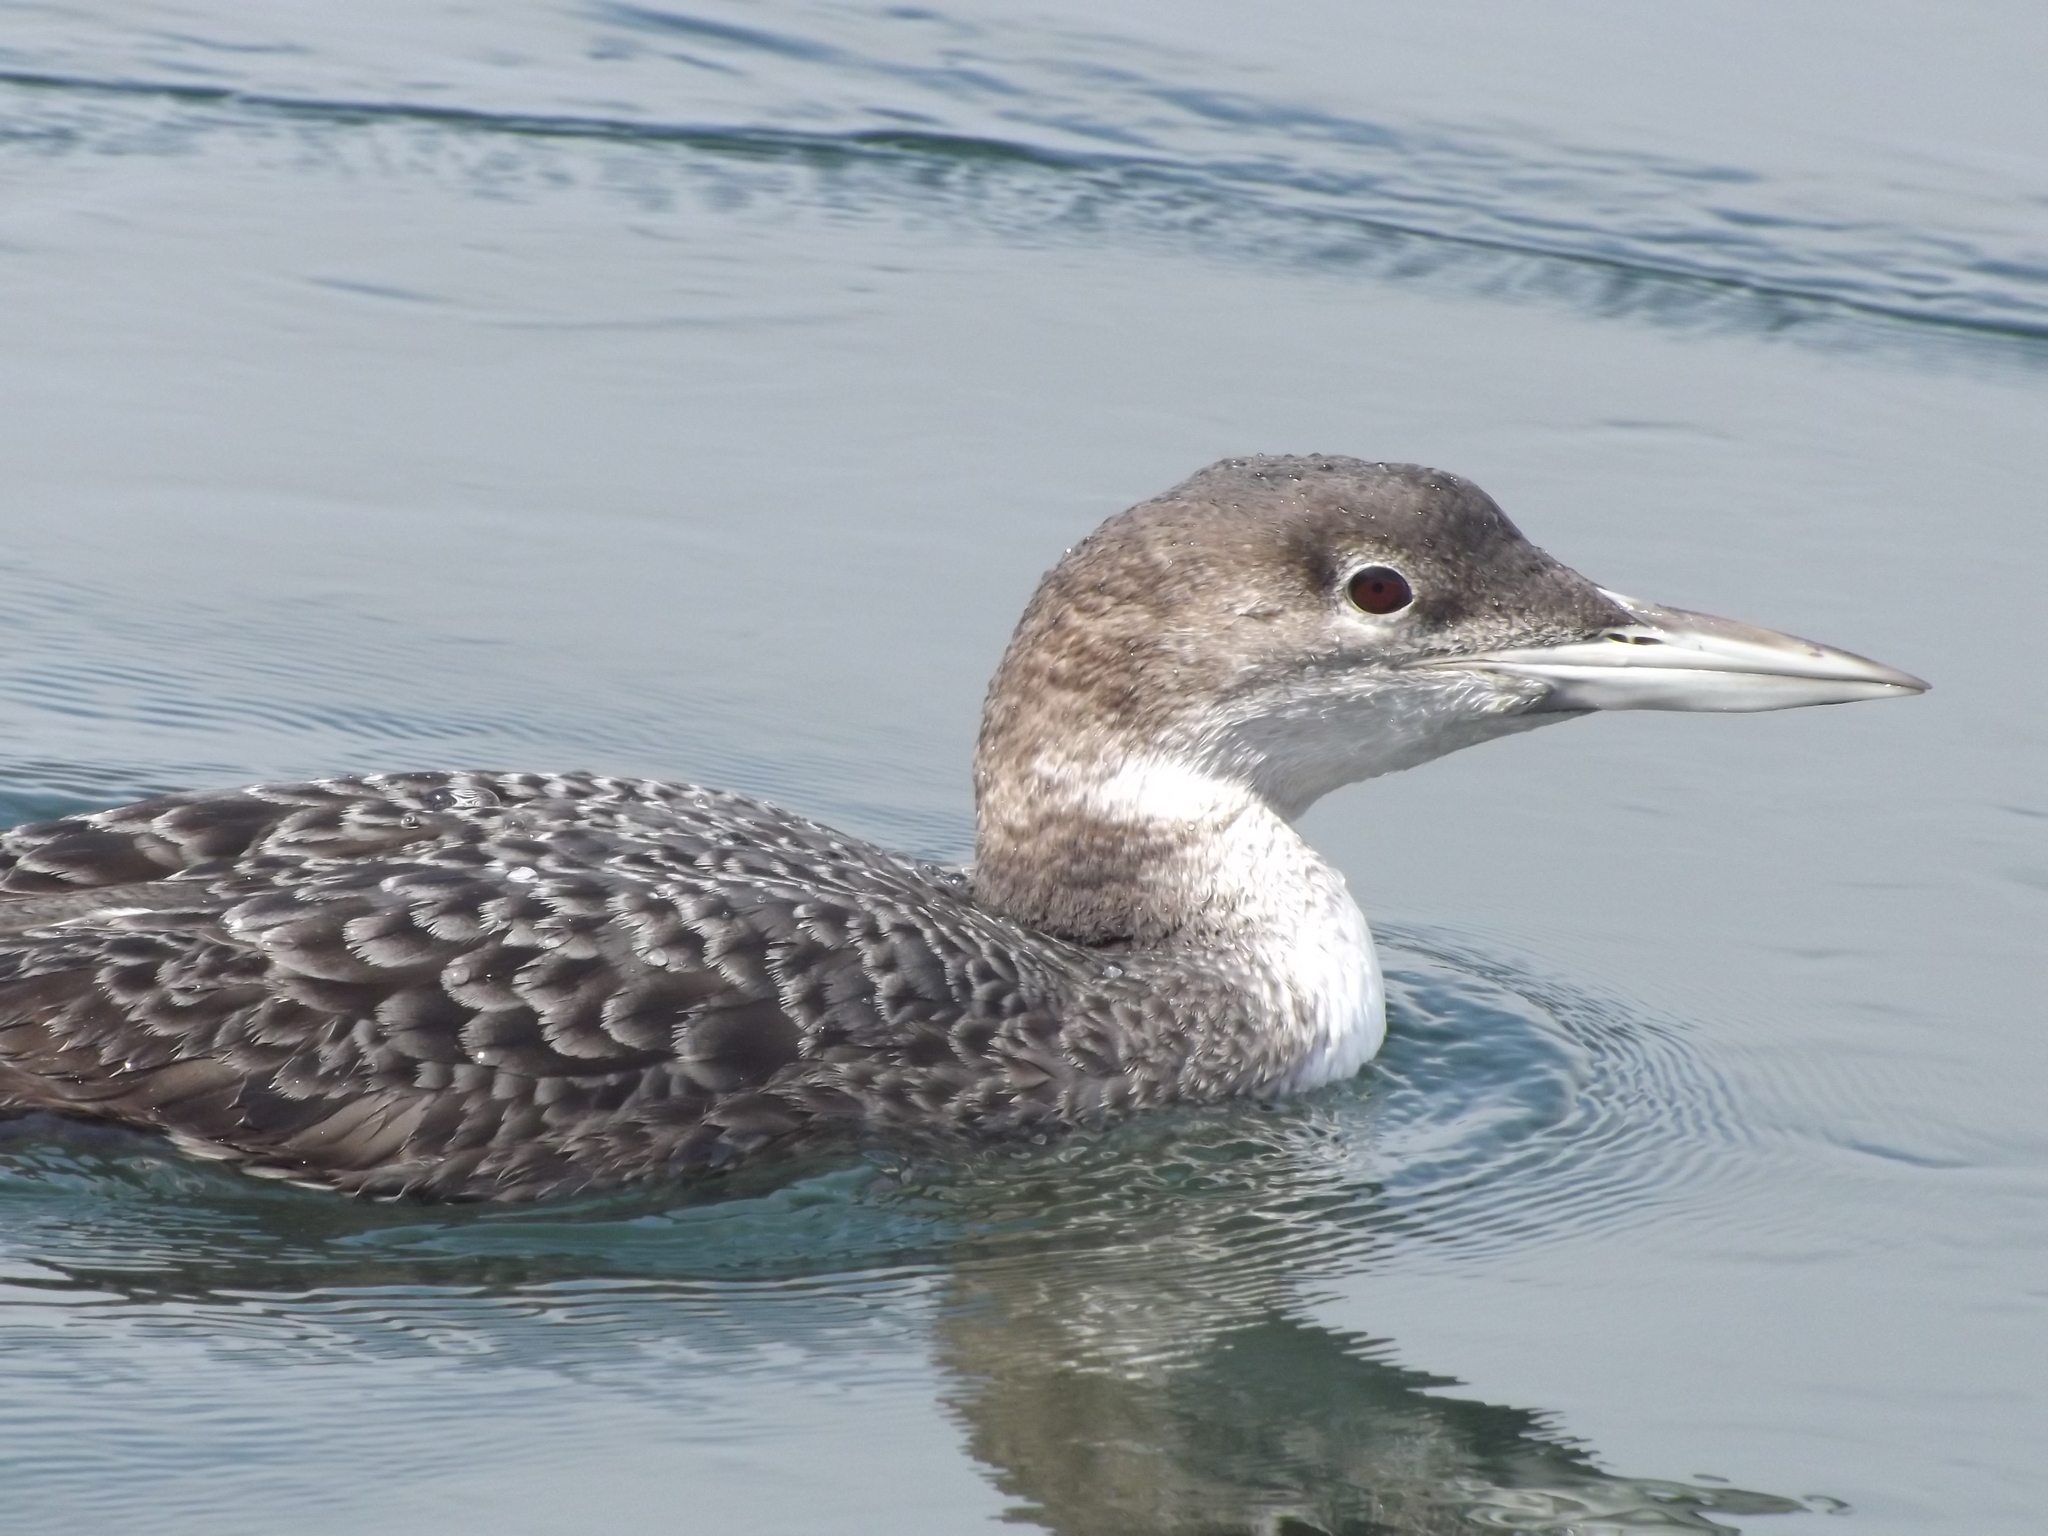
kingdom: Animalia
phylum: Chordata
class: Aves
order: Gaviiformes
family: Gaviidae
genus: Gavia
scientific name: Gavia immer
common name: Common loon
